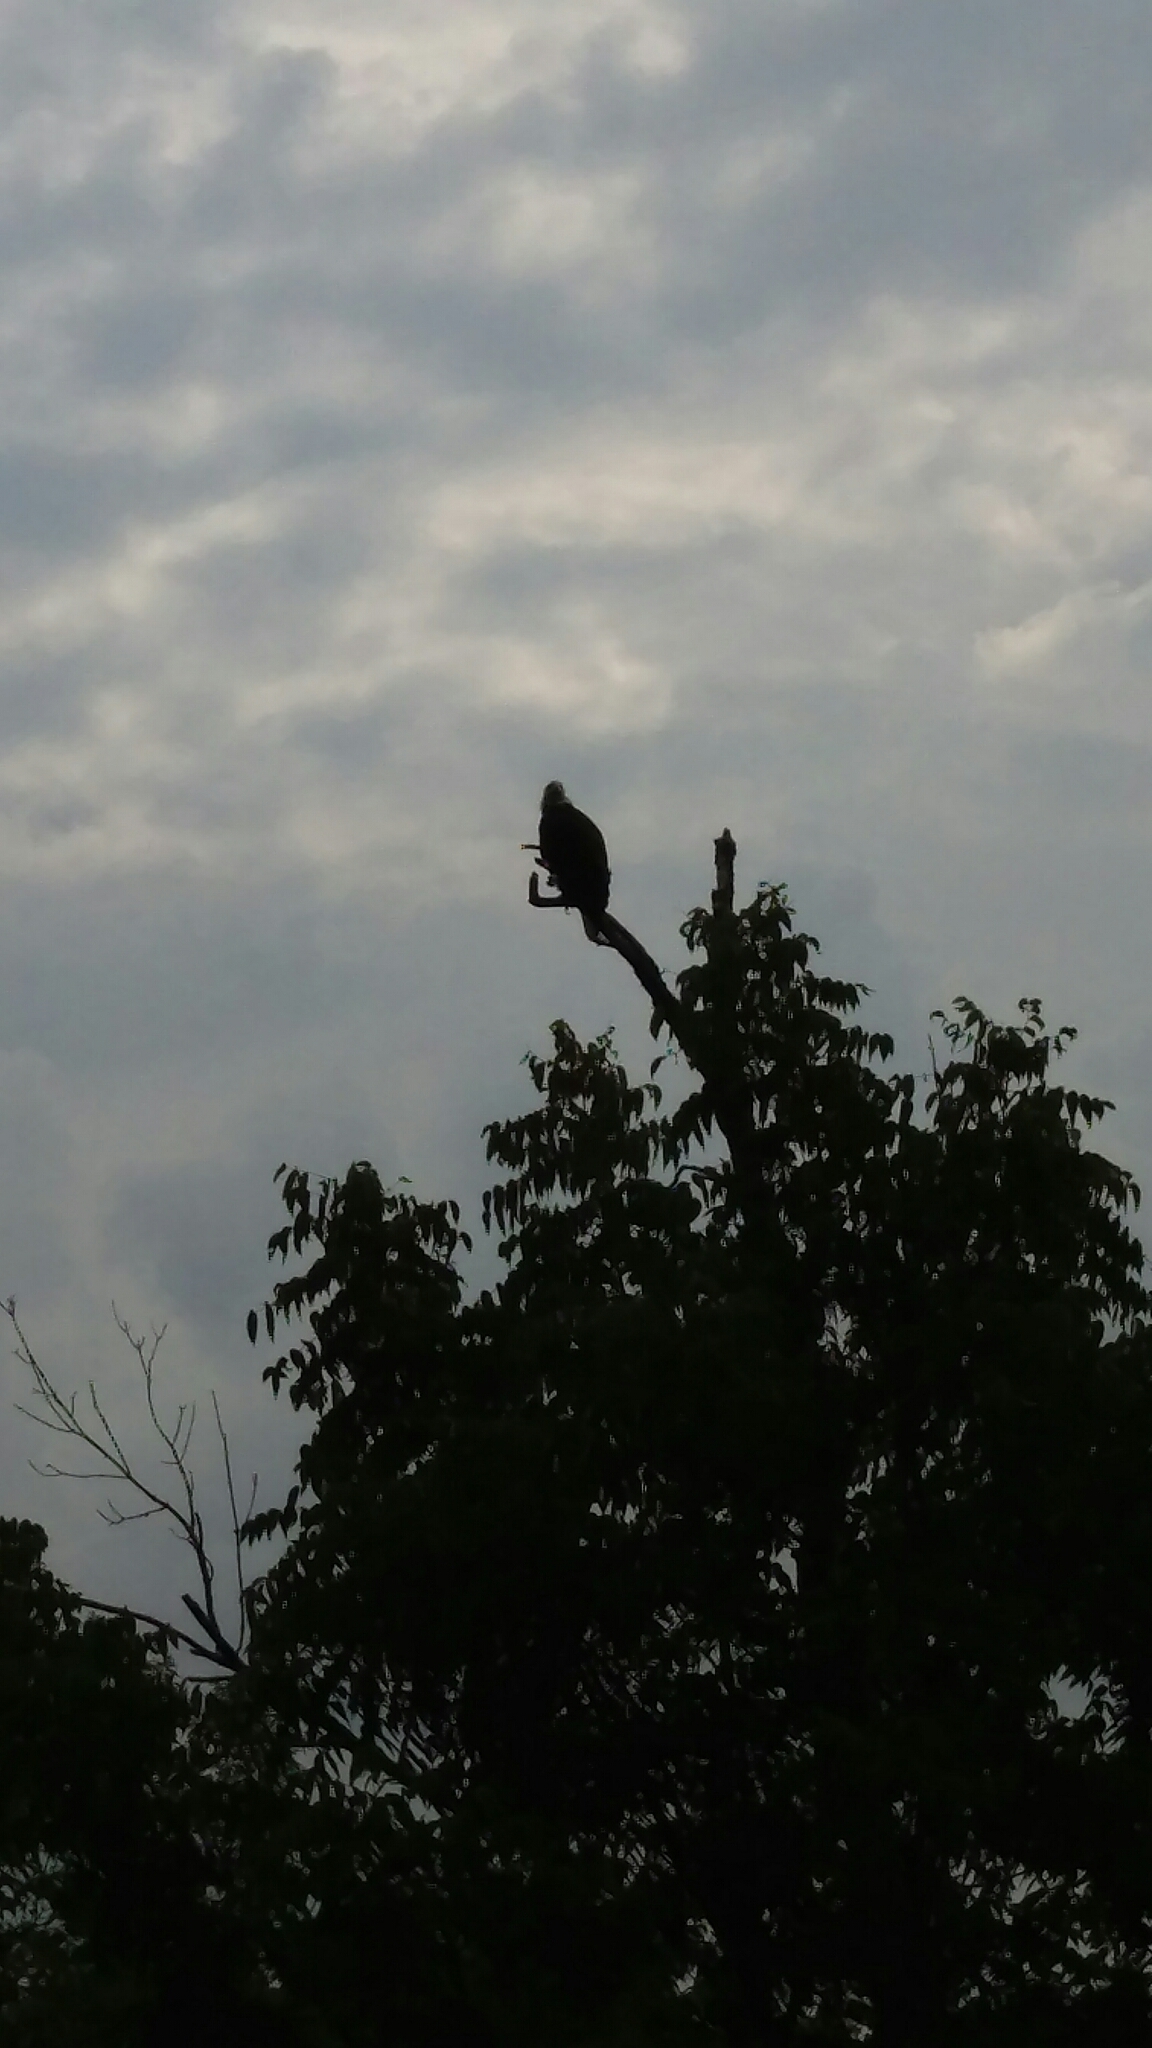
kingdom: Animalia
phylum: Chordata
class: Aves
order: Accipitriformes
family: Accipitridae
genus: Haliaeetus
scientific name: Haliaeetus leucocephalus
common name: Bald eagle
